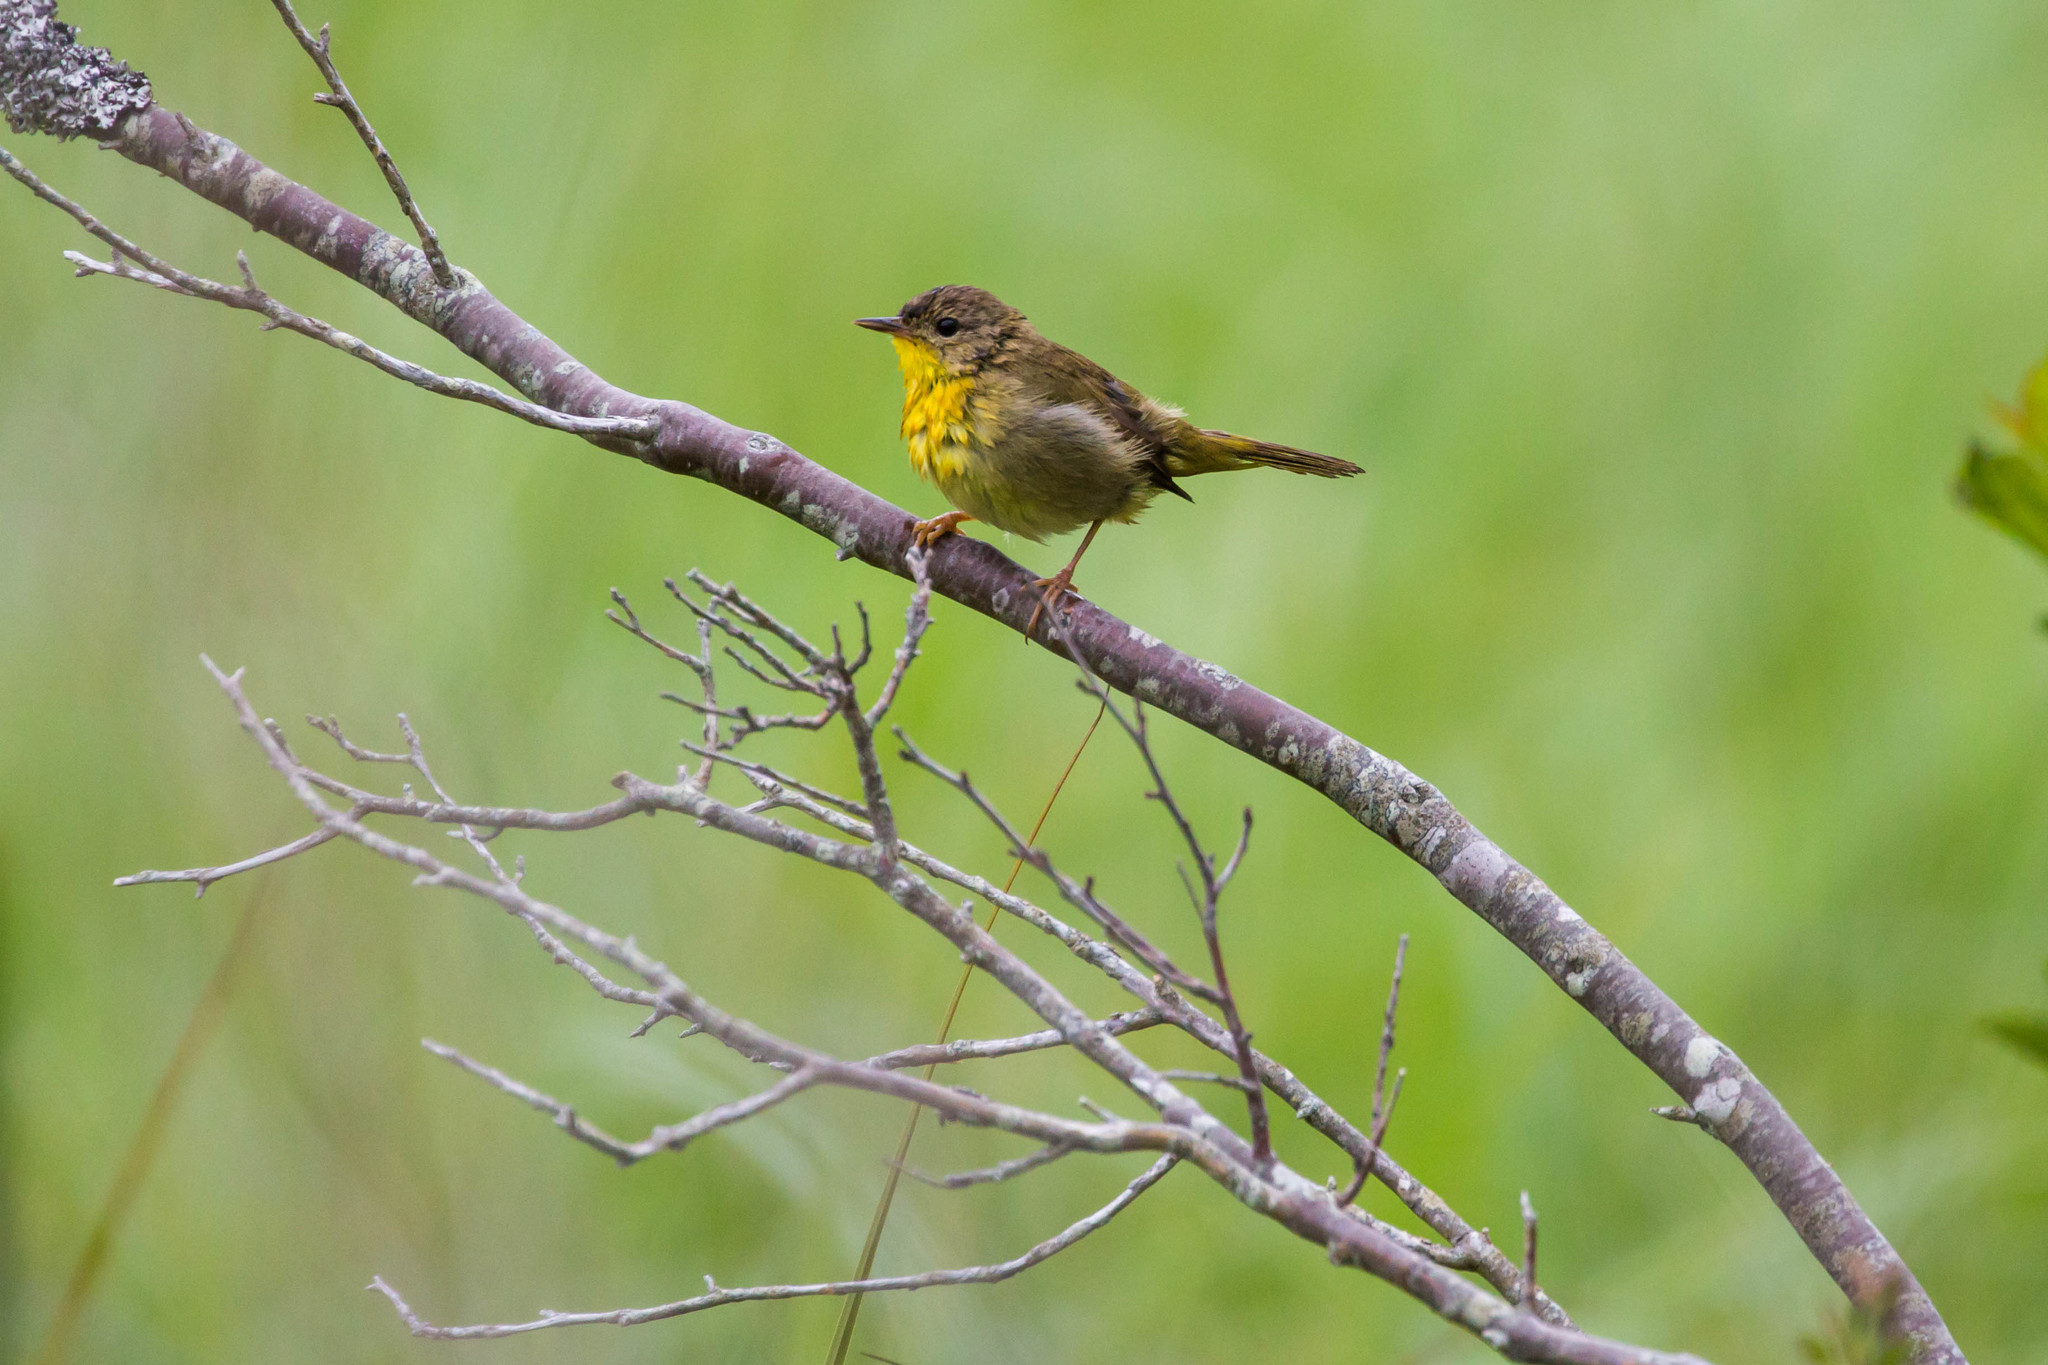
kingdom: Animalia
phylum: Chordata
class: Aves
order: Passeriformes
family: Parulidae
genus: Geothlypis
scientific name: Geothlypis trichas
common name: Common yellowthroat
